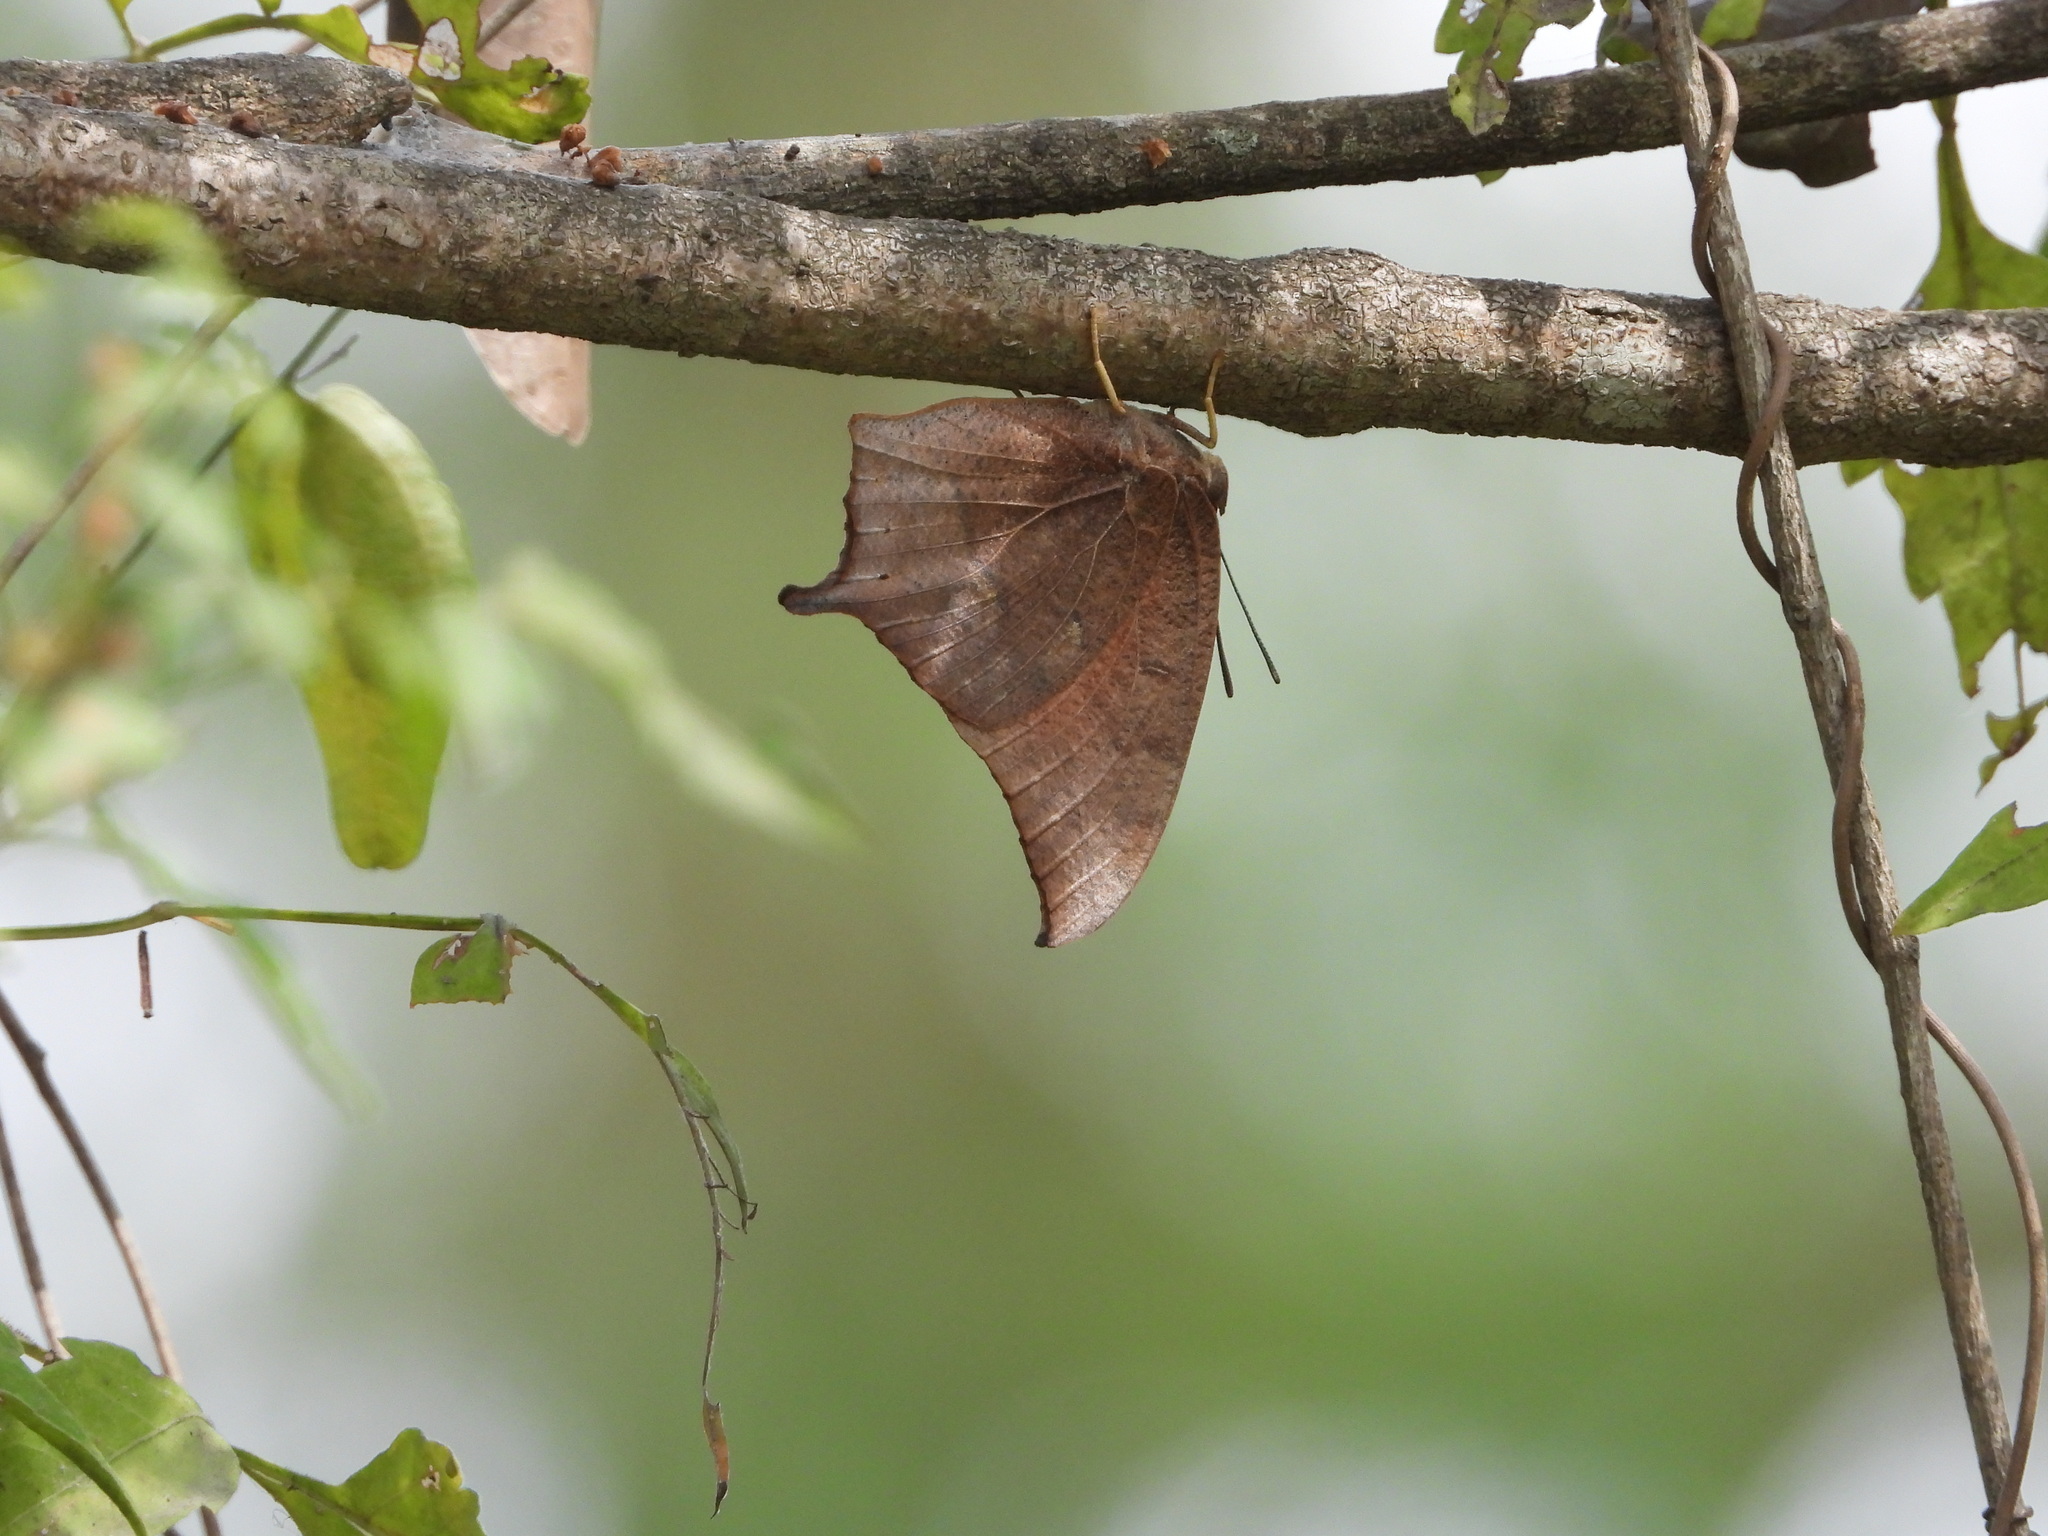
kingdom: Animalia
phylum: Arthropoda
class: Insecta
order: Lepidoptera
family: Nymphalidae
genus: Anaea
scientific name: Anaea andria
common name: Goatweed leafwing
